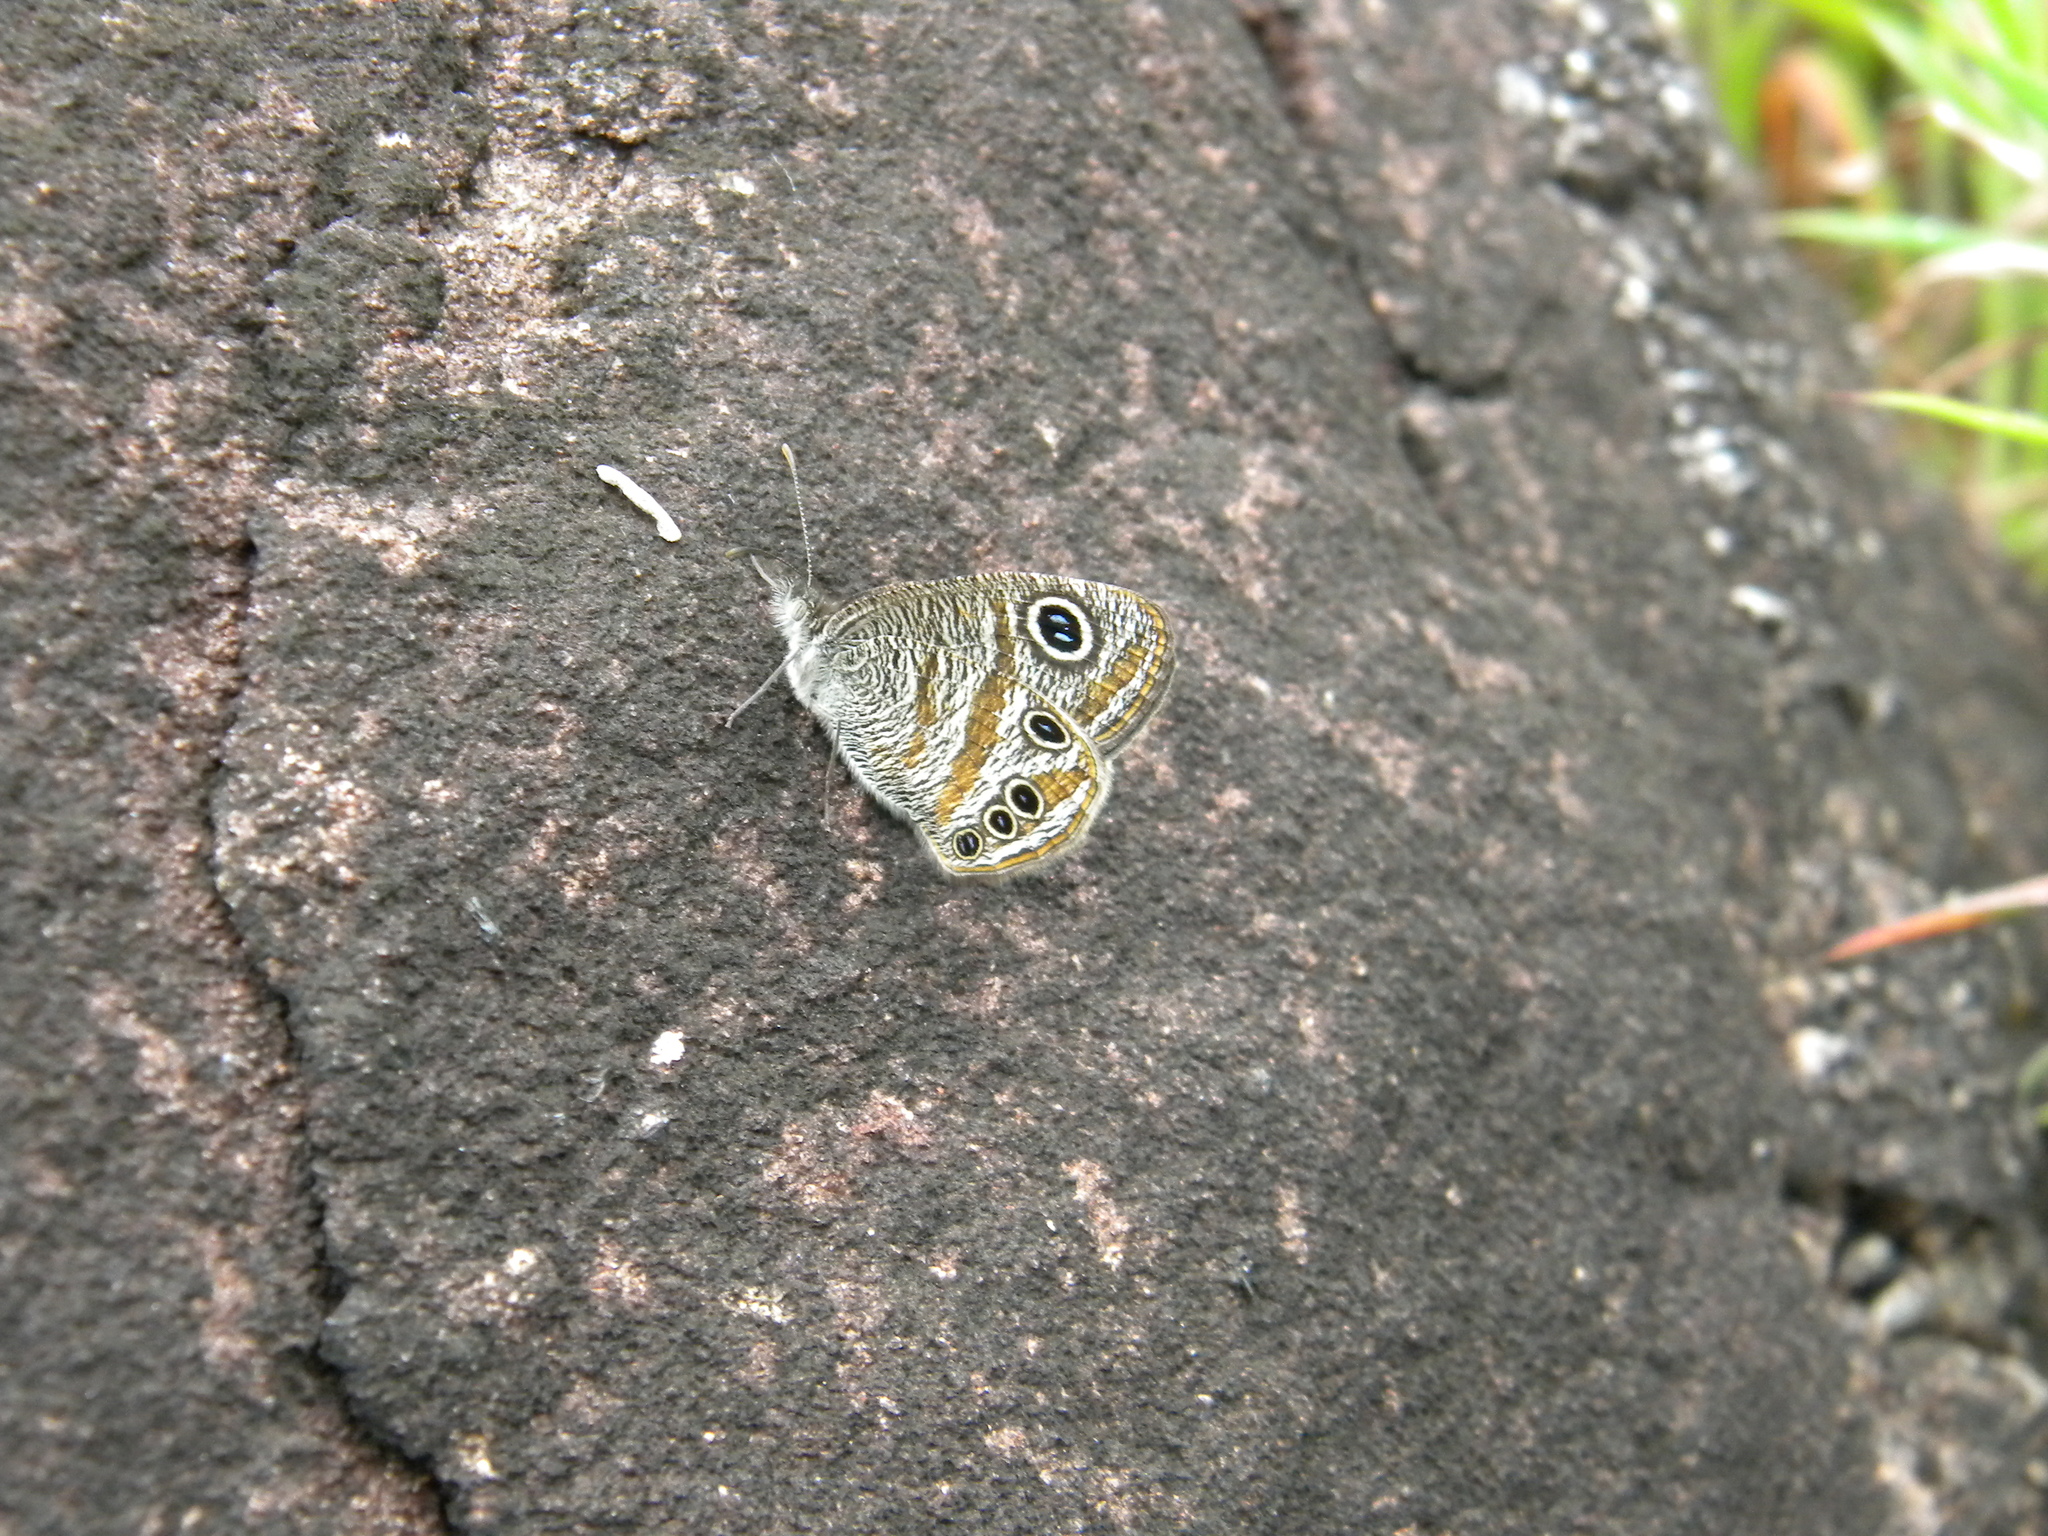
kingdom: Animalia
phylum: Arthropoda
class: Insecta
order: Lepidoptera
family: Nymphalidae
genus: Ypthima
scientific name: Ypthima chenu
